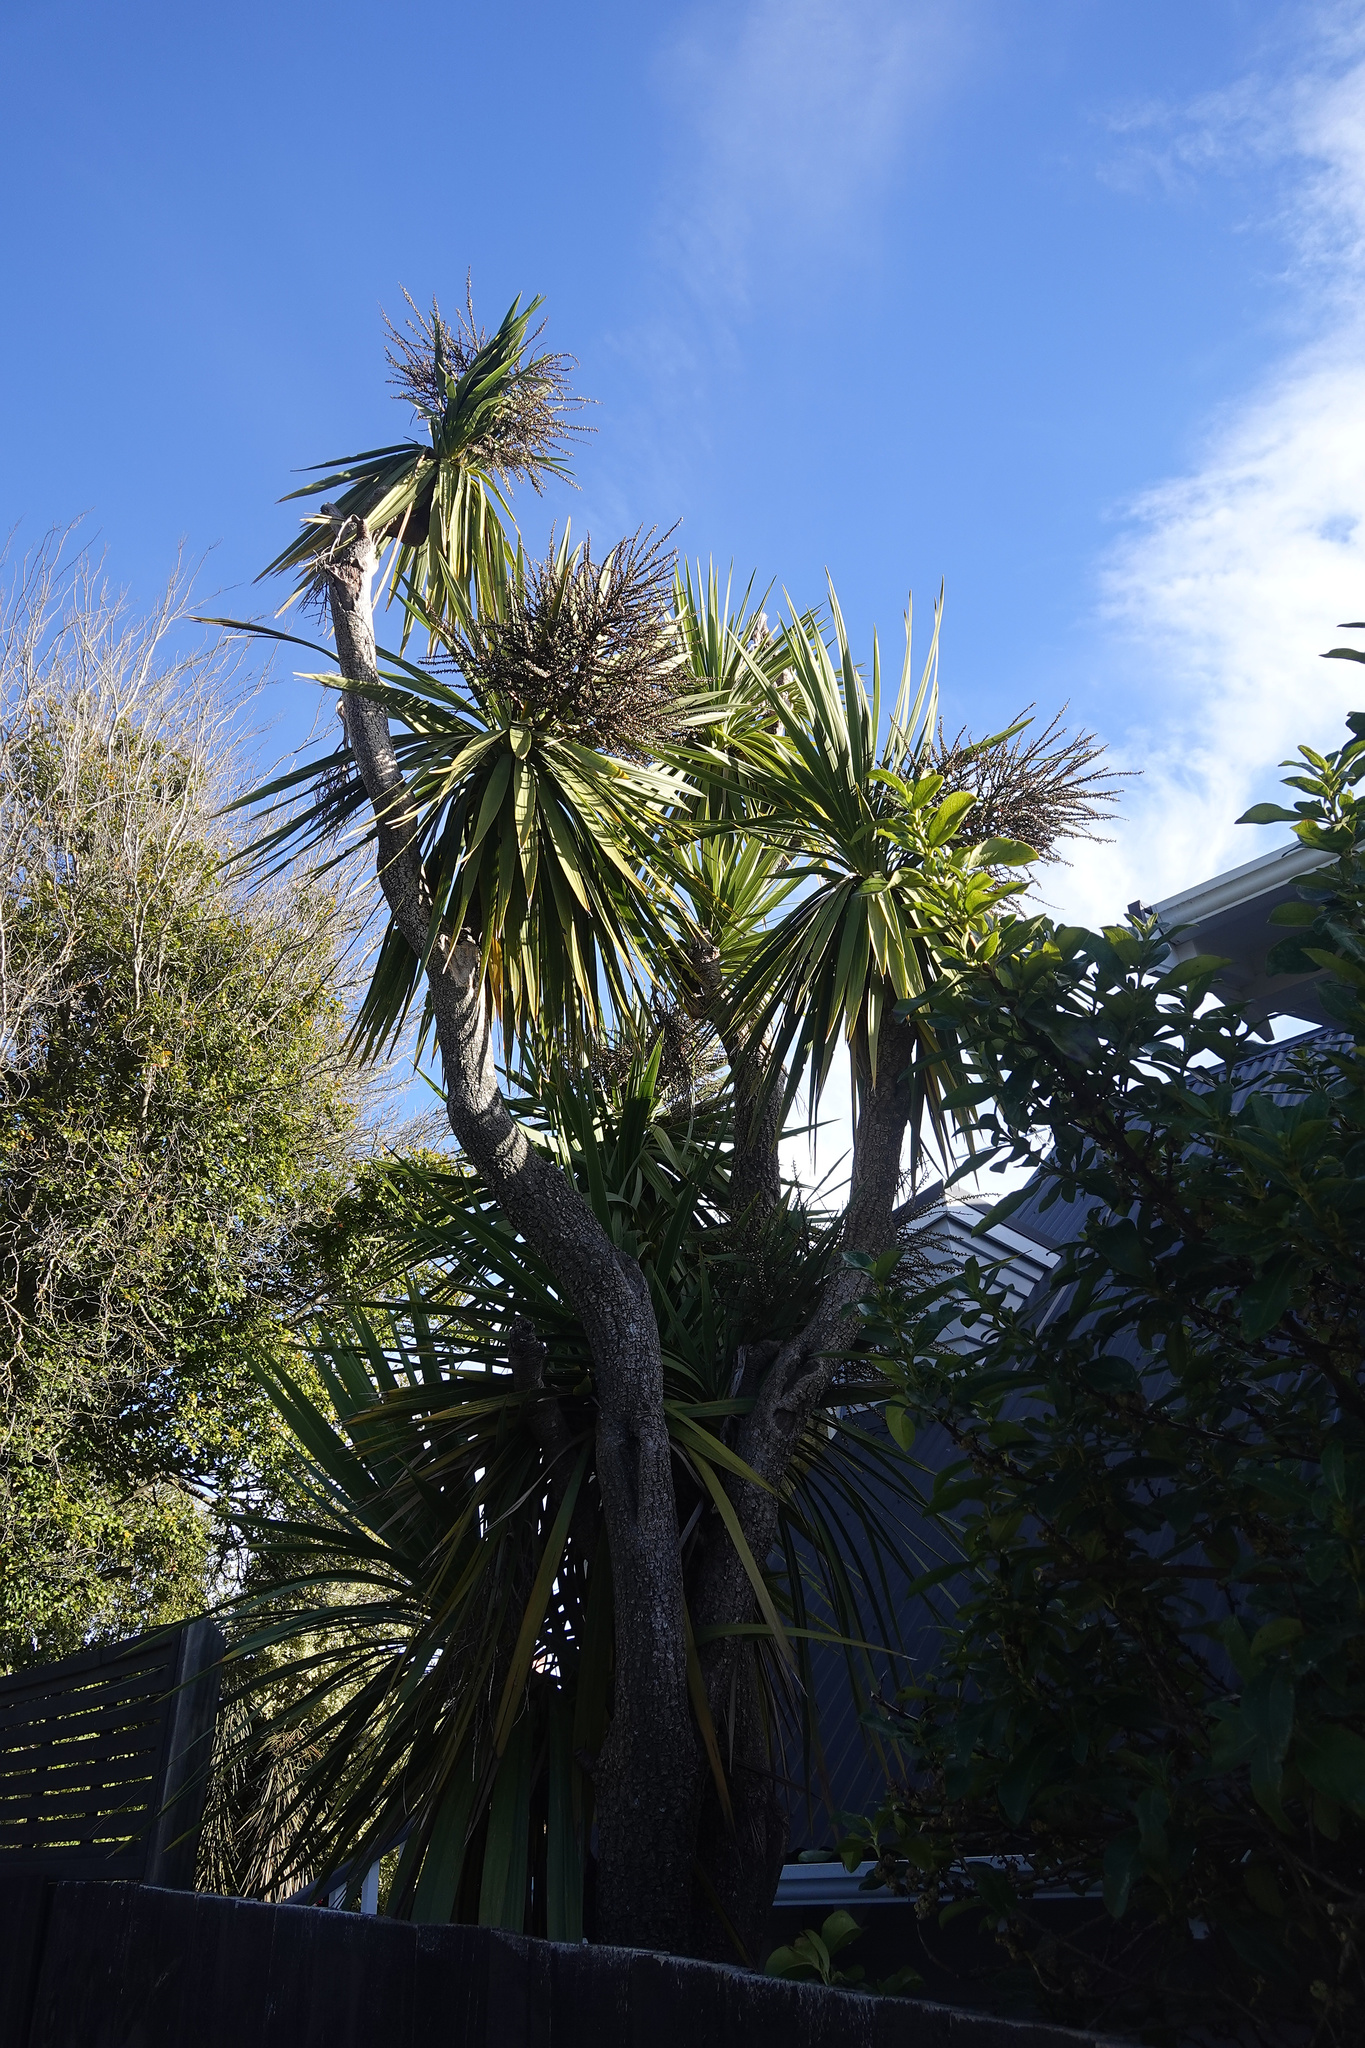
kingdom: Plantae
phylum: Tracheophyta
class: Liliopsida
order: Asparagales
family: Asparagaceae
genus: Cordyline
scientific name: Cordyline australis
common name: Cabbage-palm
